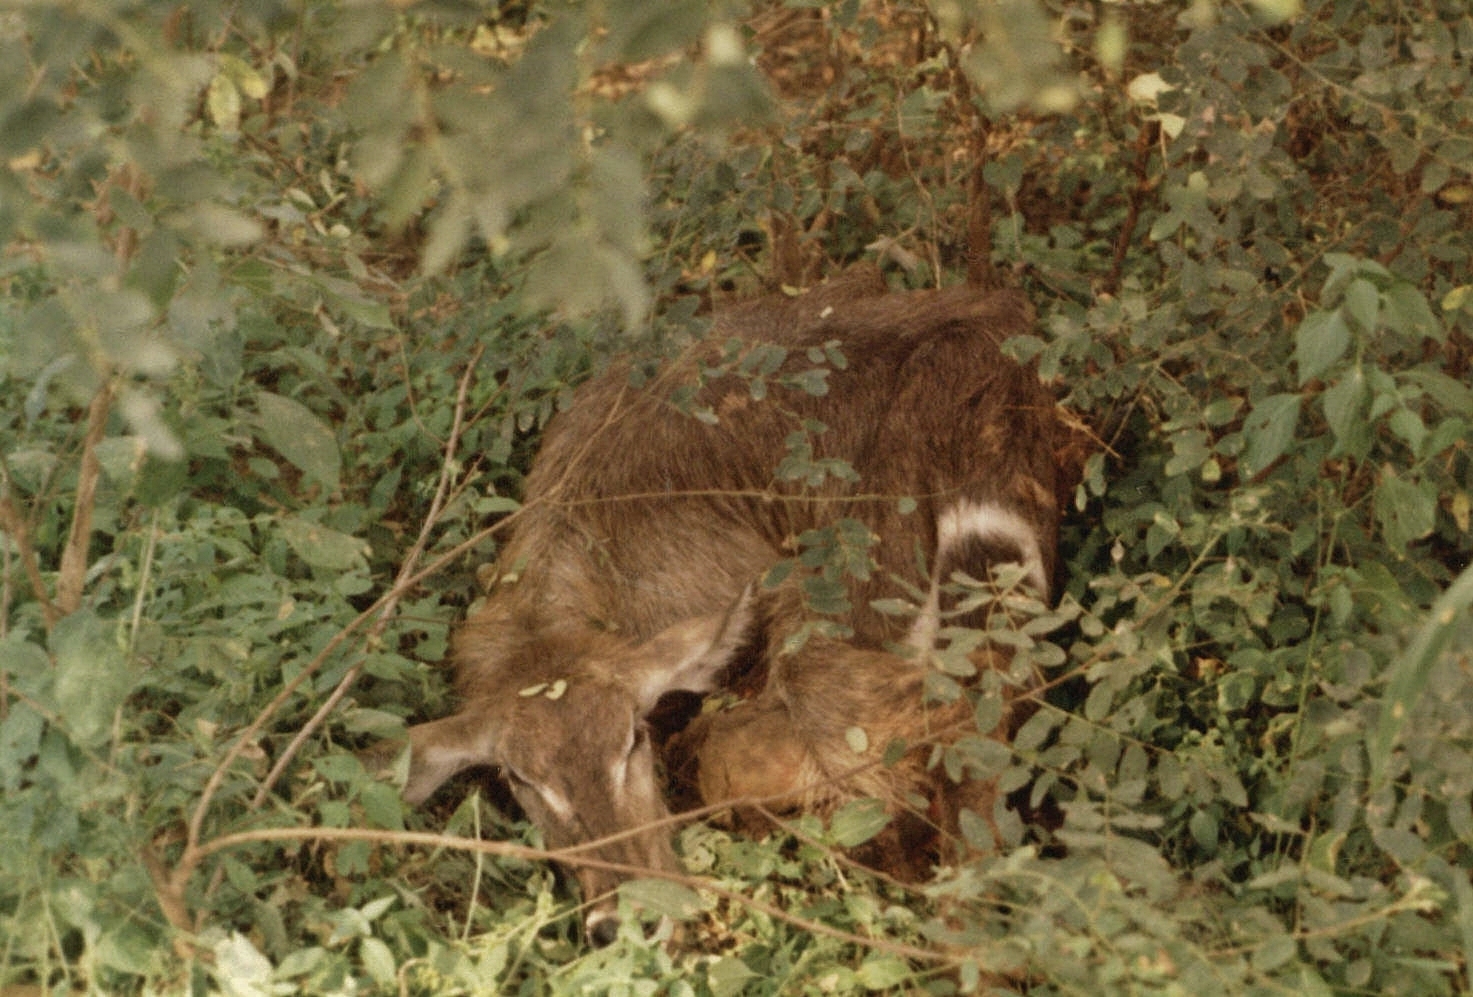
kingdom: Animalia
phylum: Chordata
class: Mammalia
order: Artiodactyla
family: Bovidae
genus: Kobus
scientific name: Kobus ellipsiprymnus
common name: Waterbuck
